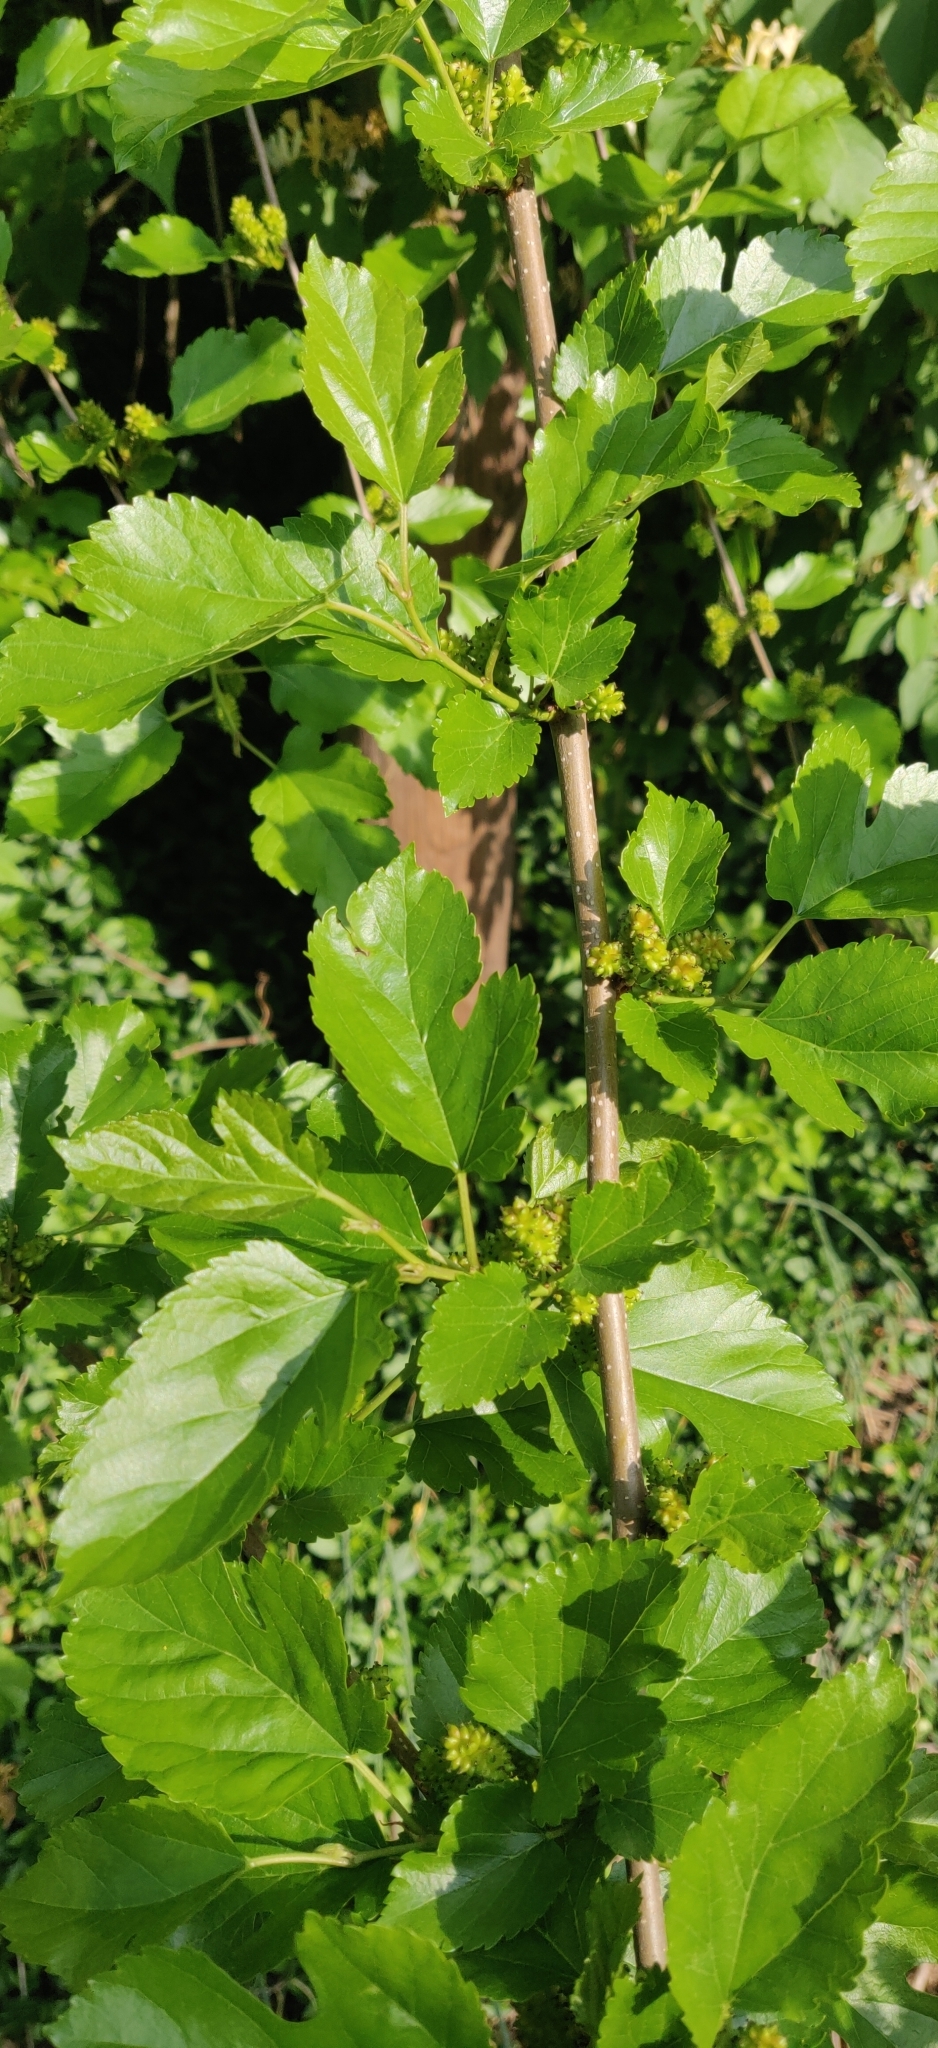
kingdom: Plantae
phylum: Tracheophyta
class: Magnoliopsida
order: Rosales
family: Moraceae
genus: Morus
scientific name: Morus alba
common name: White mulberry
